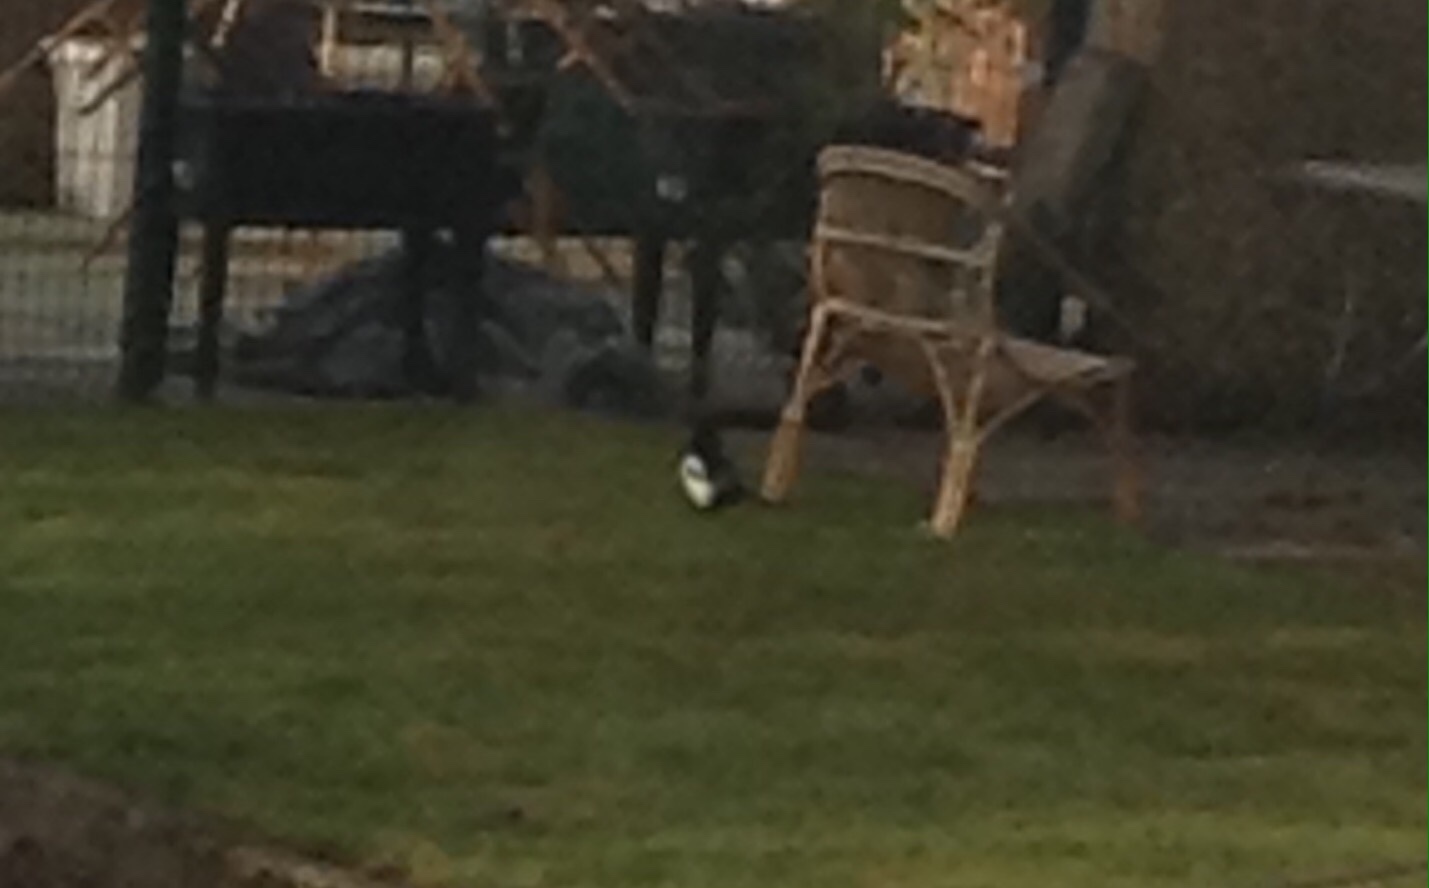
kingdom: Animalia
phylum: Chordata
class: Aves
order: Passeriformes
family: Corvidae
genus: Pica
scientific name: Pica pica
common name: Eurasian magpie
